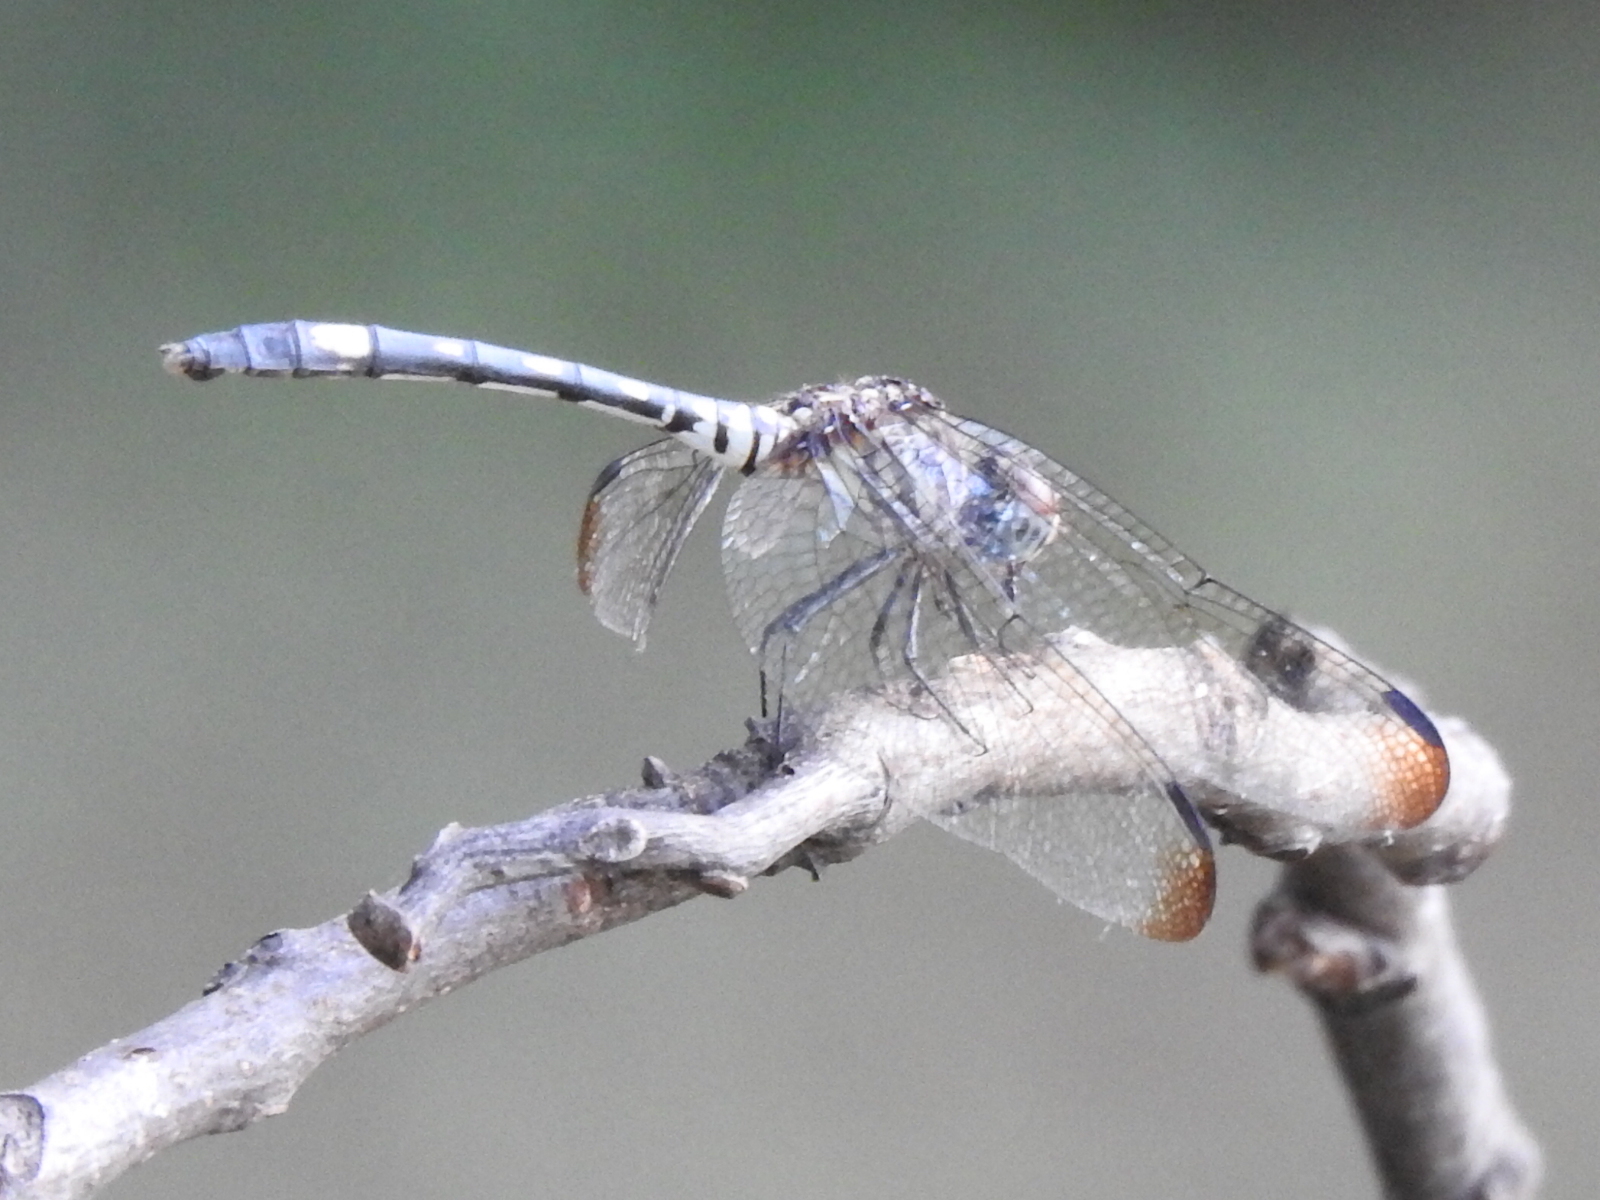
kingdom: Animalia
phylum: Arthropoda
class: Insecta
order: Odonata
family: Libellulidae
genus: Dythemis
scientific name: Dythemis velox
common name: Swift setwing
